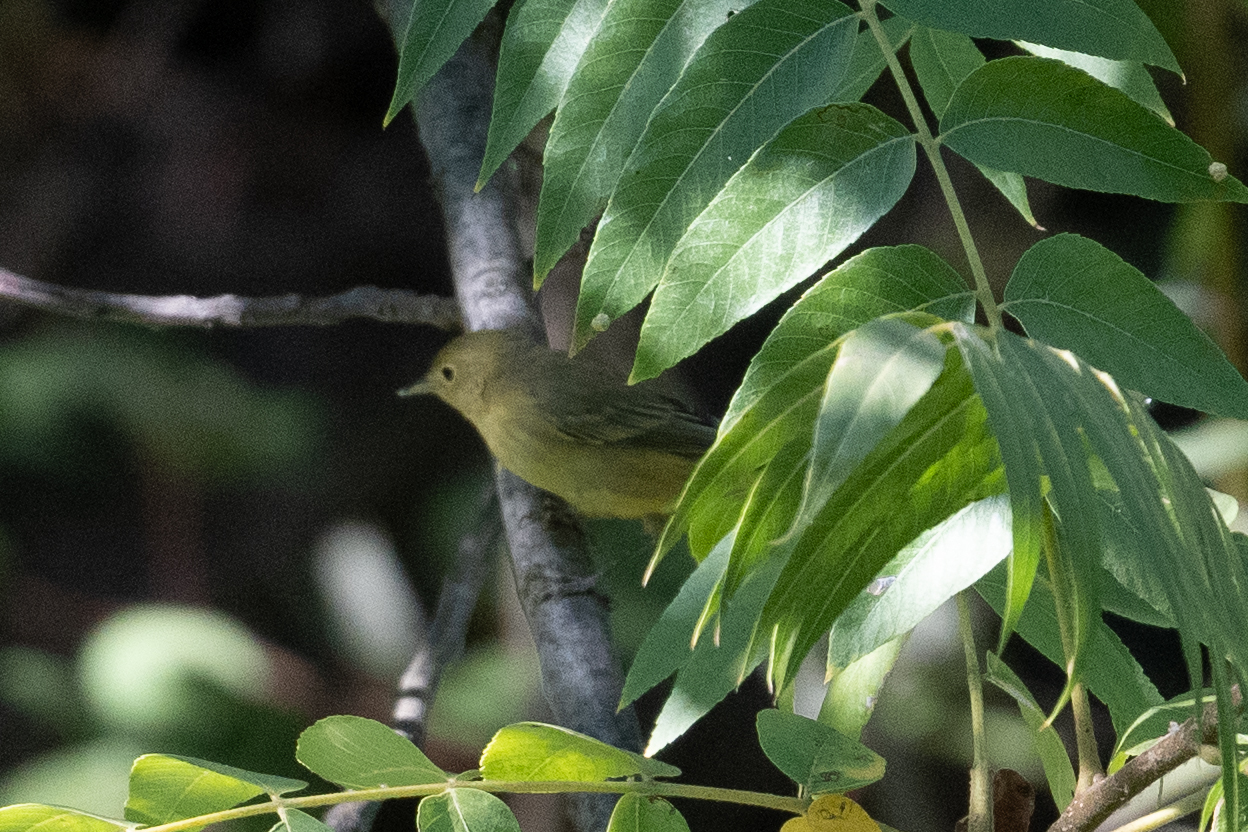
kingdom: Animalia
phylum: Chordata
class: Aves
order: Passeriformes
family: Parulidae
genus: Setophaga
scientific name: Setophaga petechia
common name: Yellow warbler
